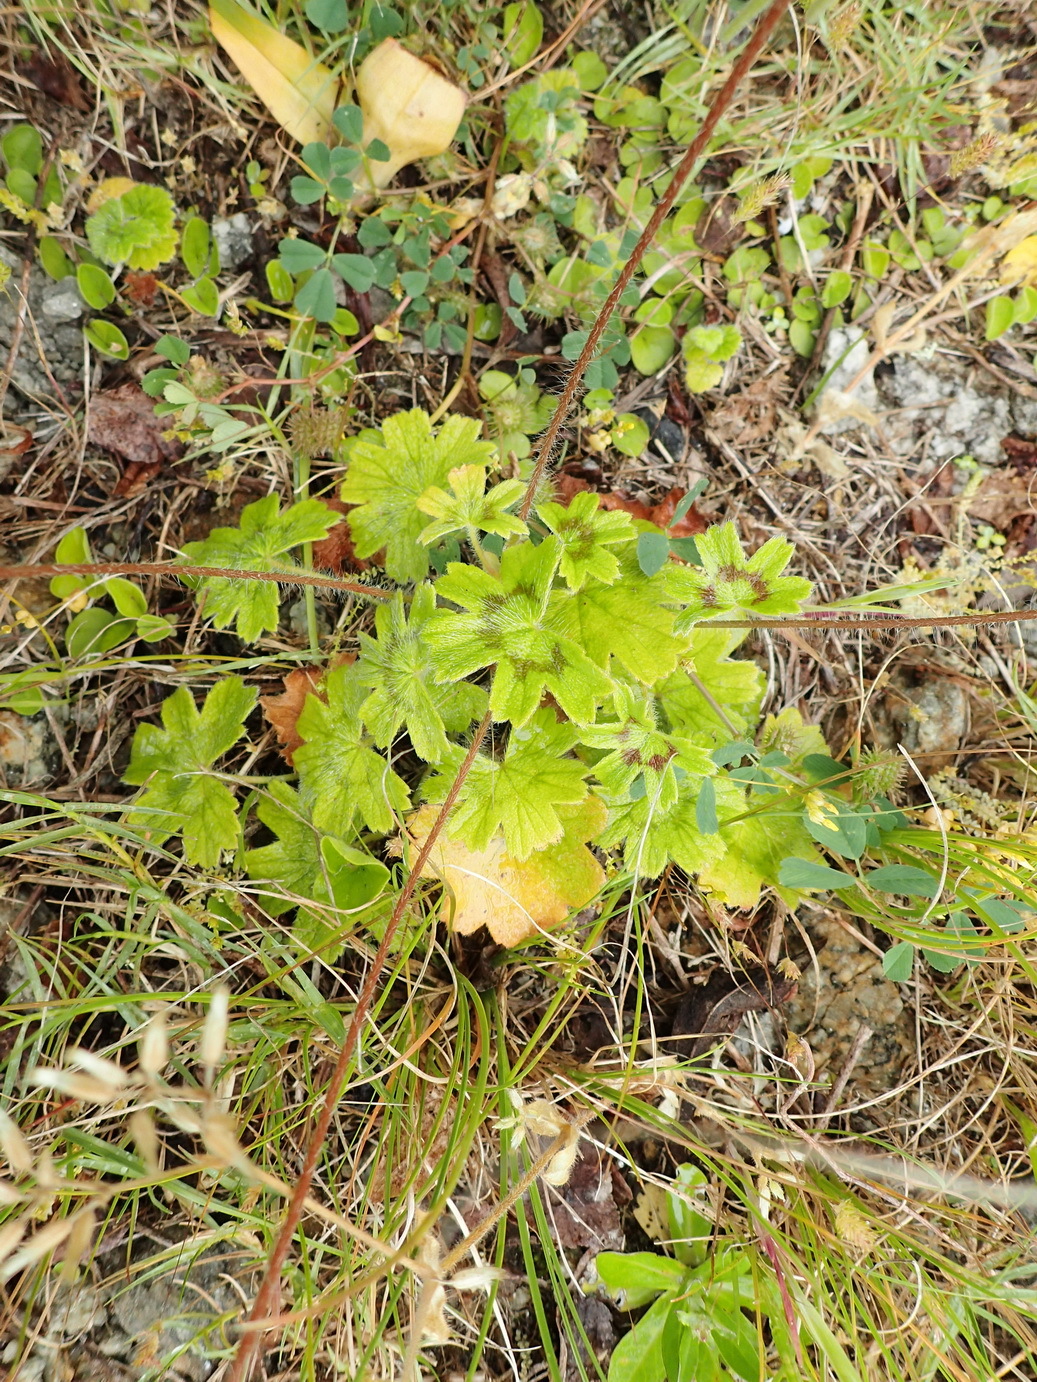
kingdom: Plantae
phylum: Tracheophyta
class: Magnoliopsida
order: Geraniales
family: Geraniaceae
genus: Pelargonium
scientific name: Pelargonium alchemilloides
